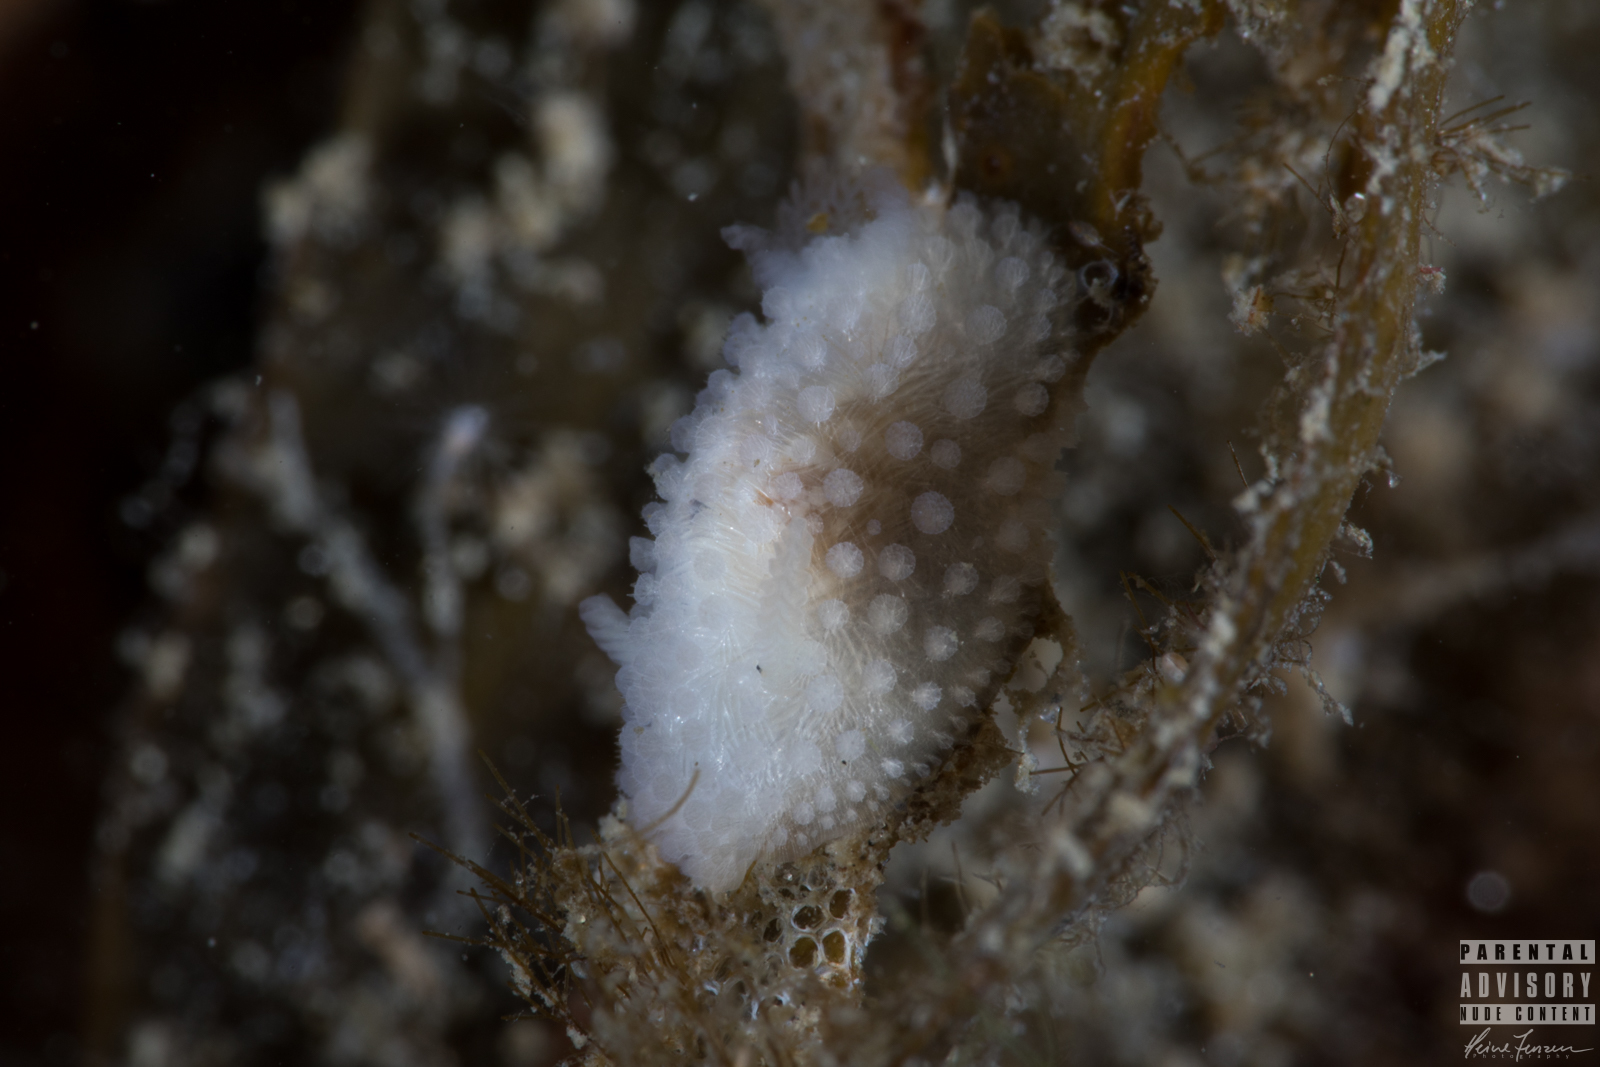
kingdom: Animalia
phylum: Mollusca
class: Gastropoda
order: Nudibranchia
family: Onchidorididae
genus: Onchidoris
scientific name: Onchidoris muricata
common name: Rough doris
